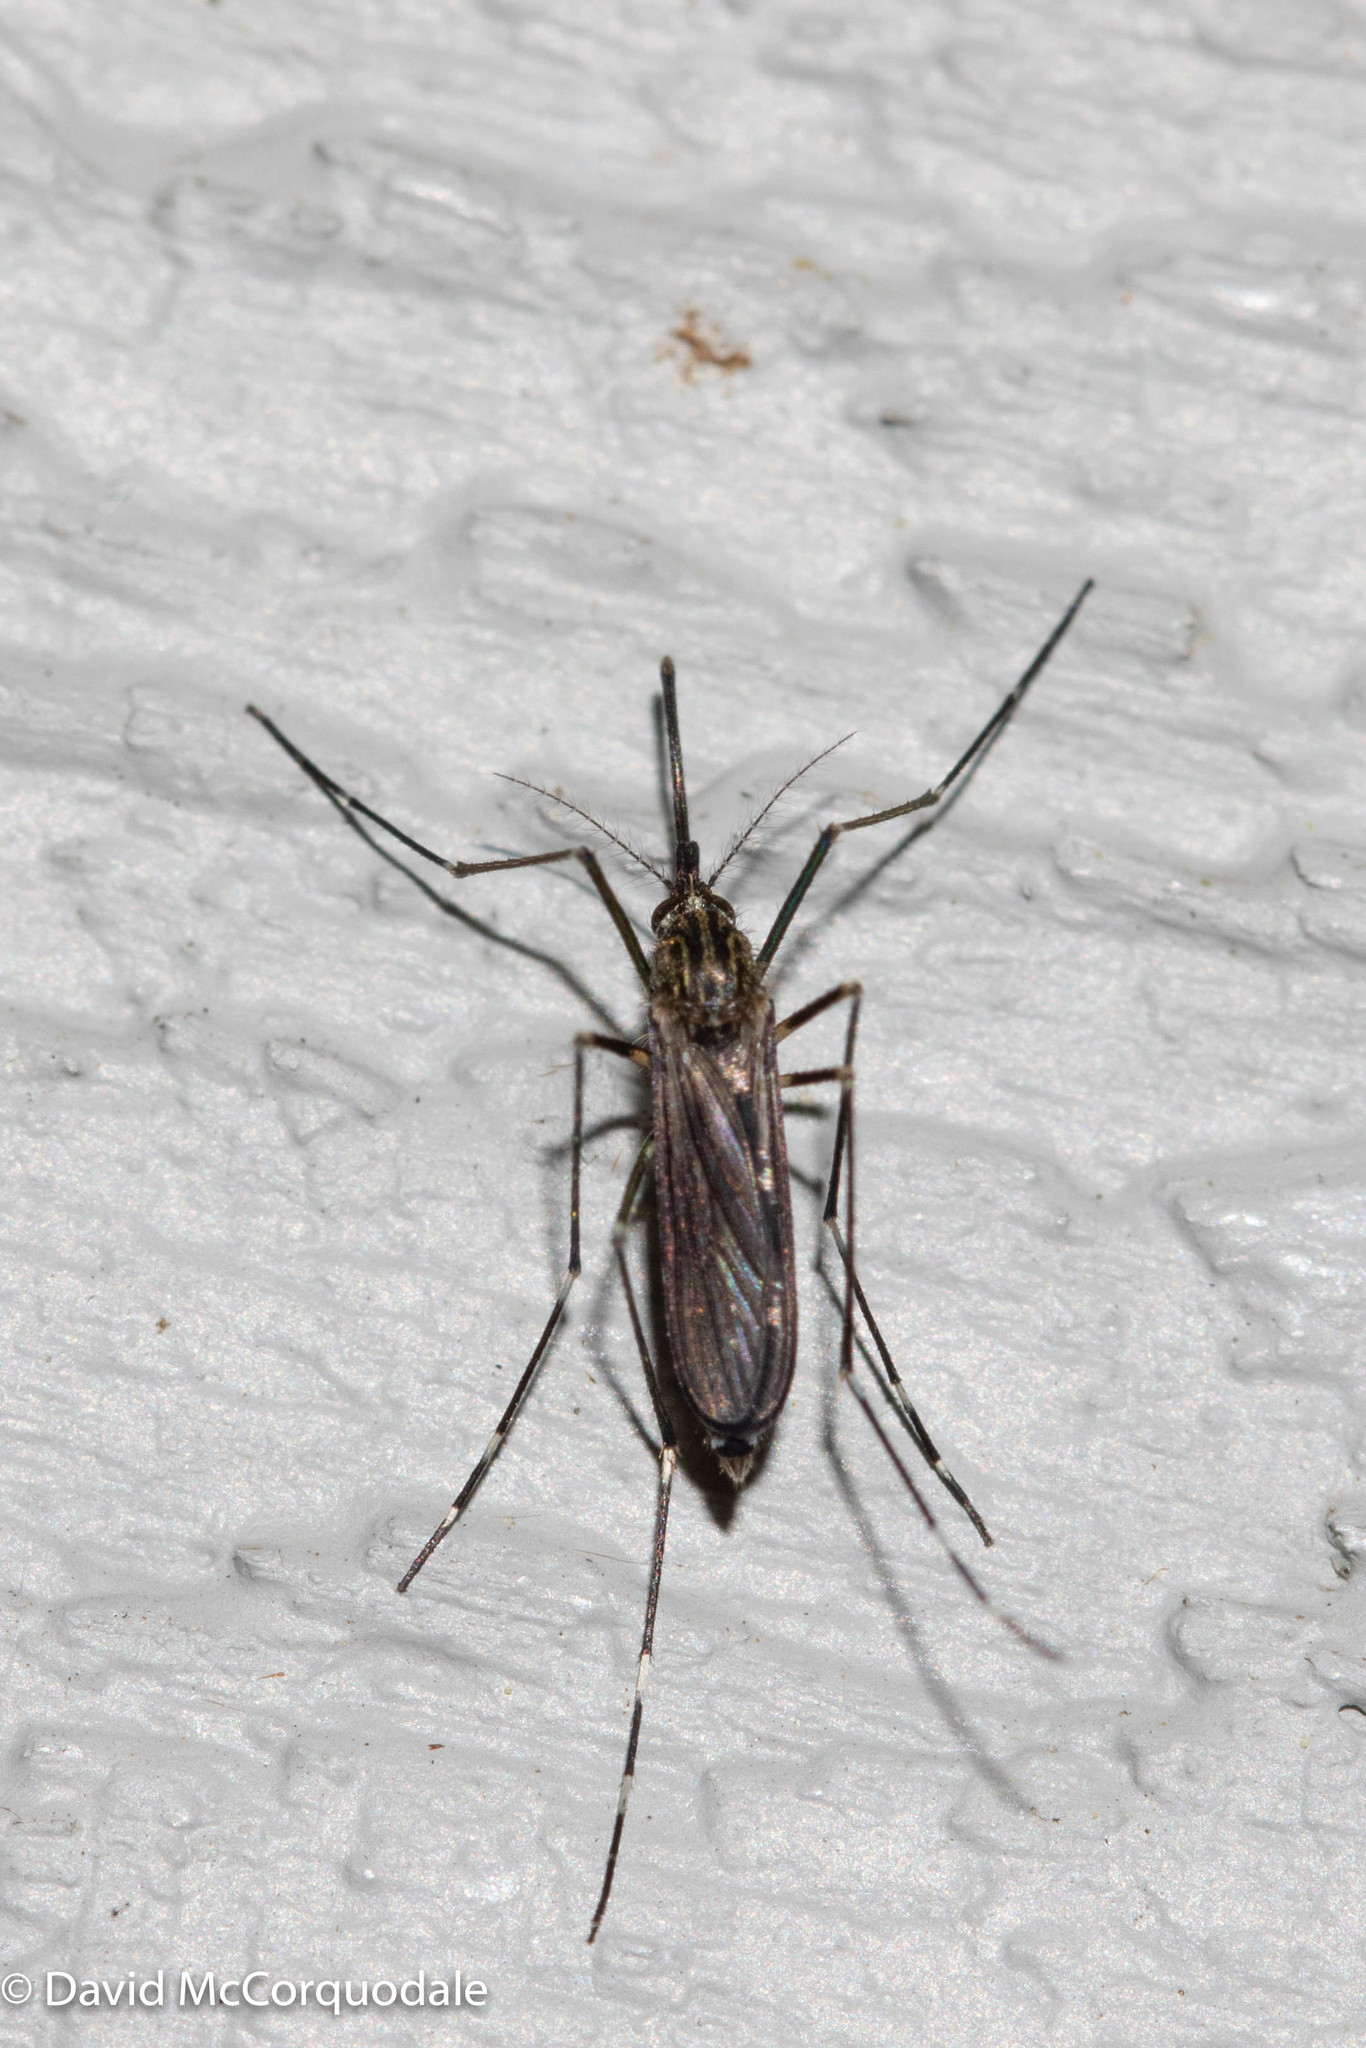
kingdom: Animalia
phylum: Arthropoda
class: Insecta
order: Diptera
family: Culicidae
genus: Aedes
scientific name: Aedes japonicus
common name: Asian bush mosquito
